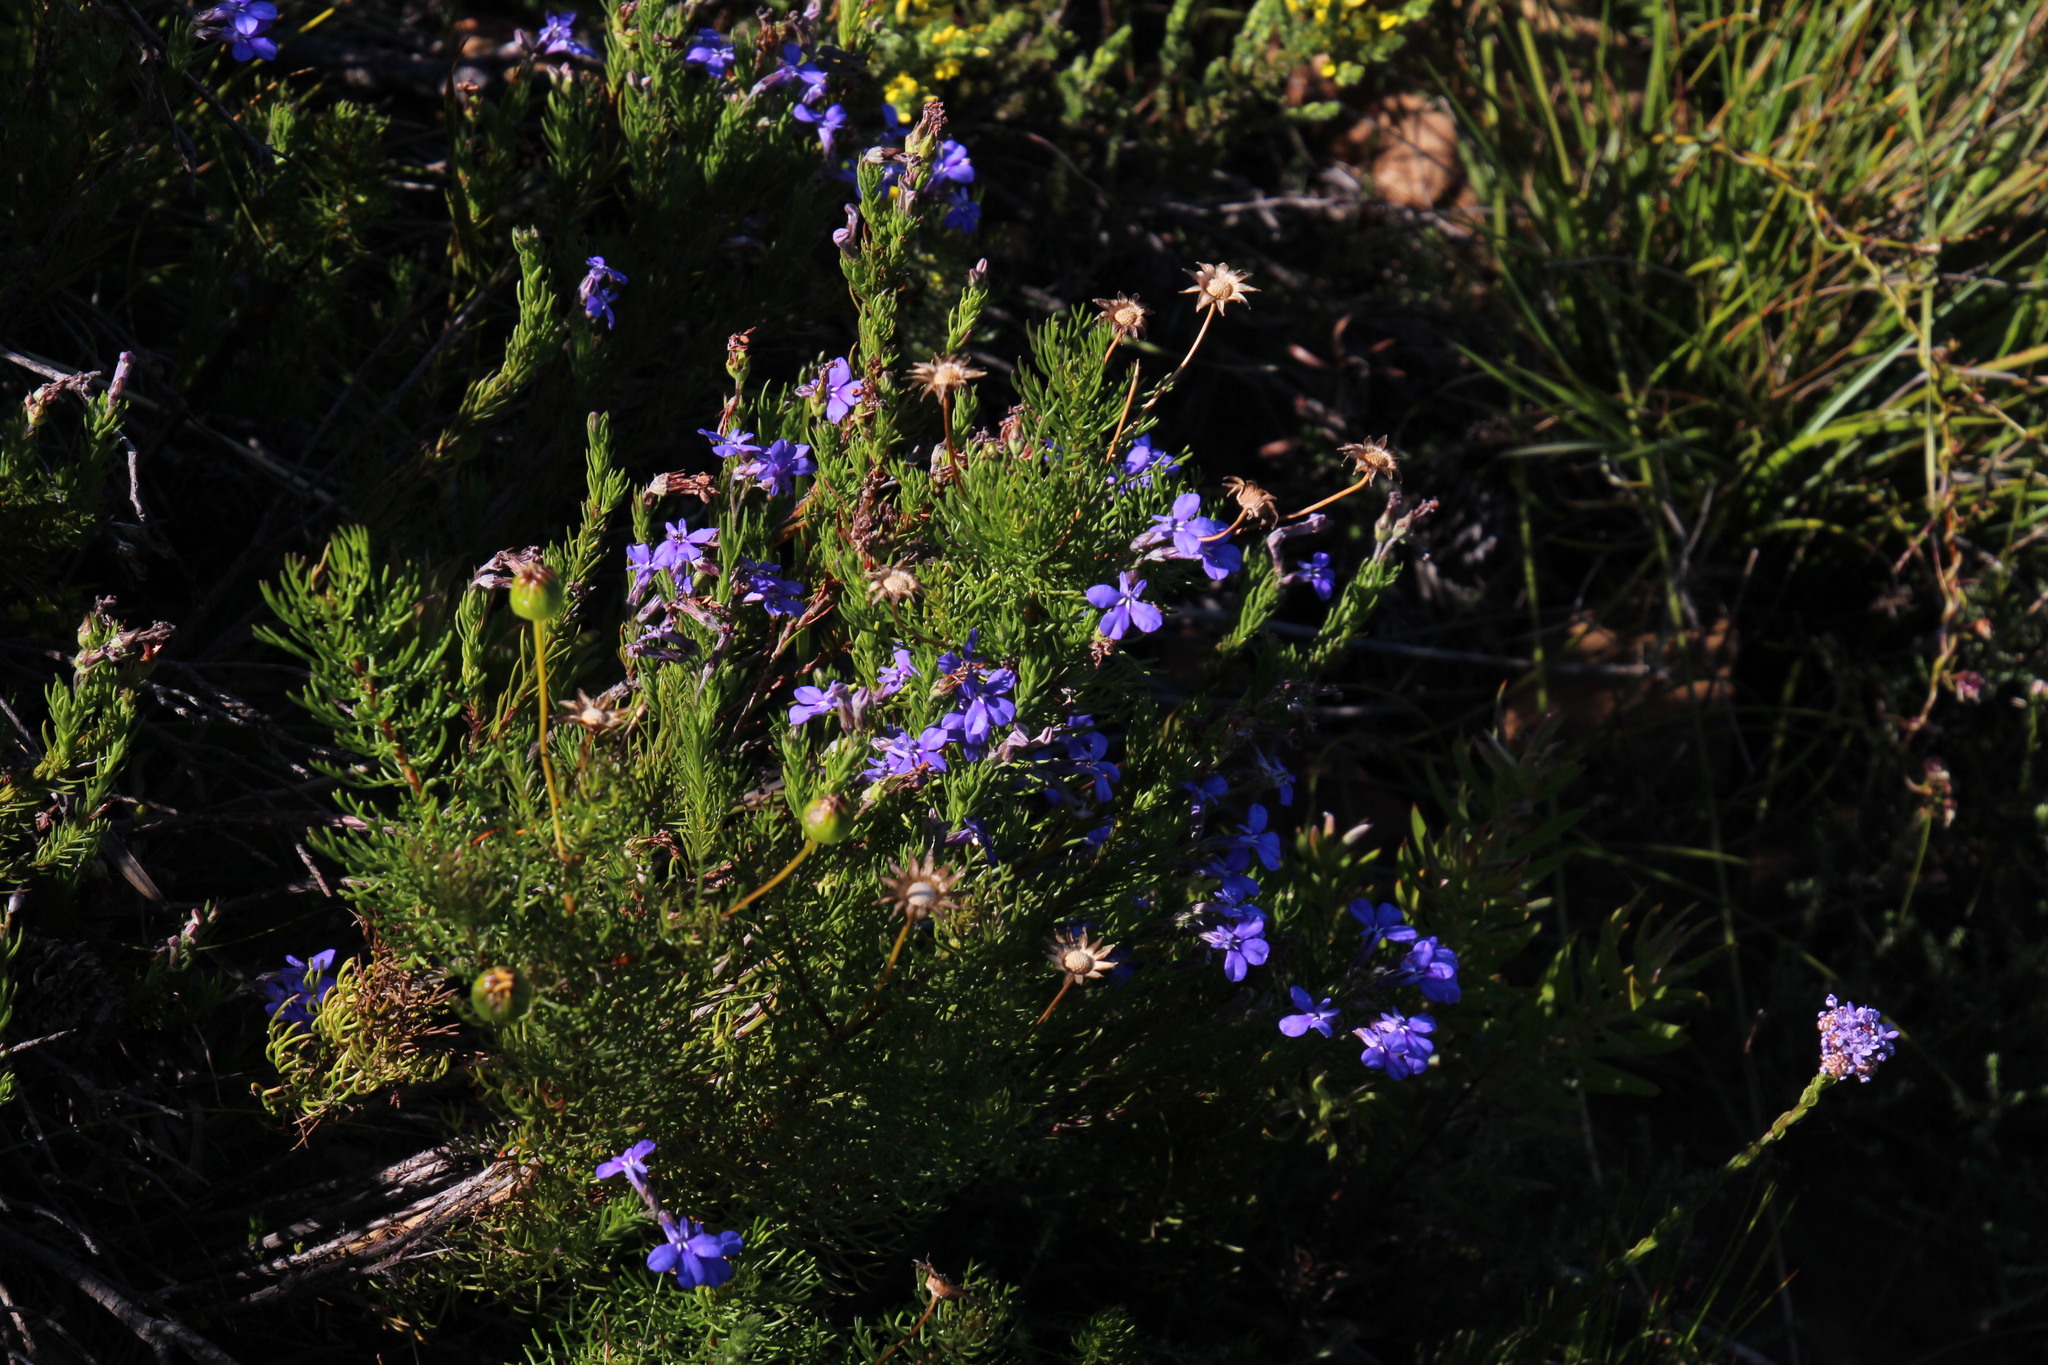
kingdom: Plantae
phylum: Tracheophyta
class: Magnoliopsida
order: Asterales
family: Campanulaceae
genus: Lobelia
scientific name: Lobelia pinifolia
